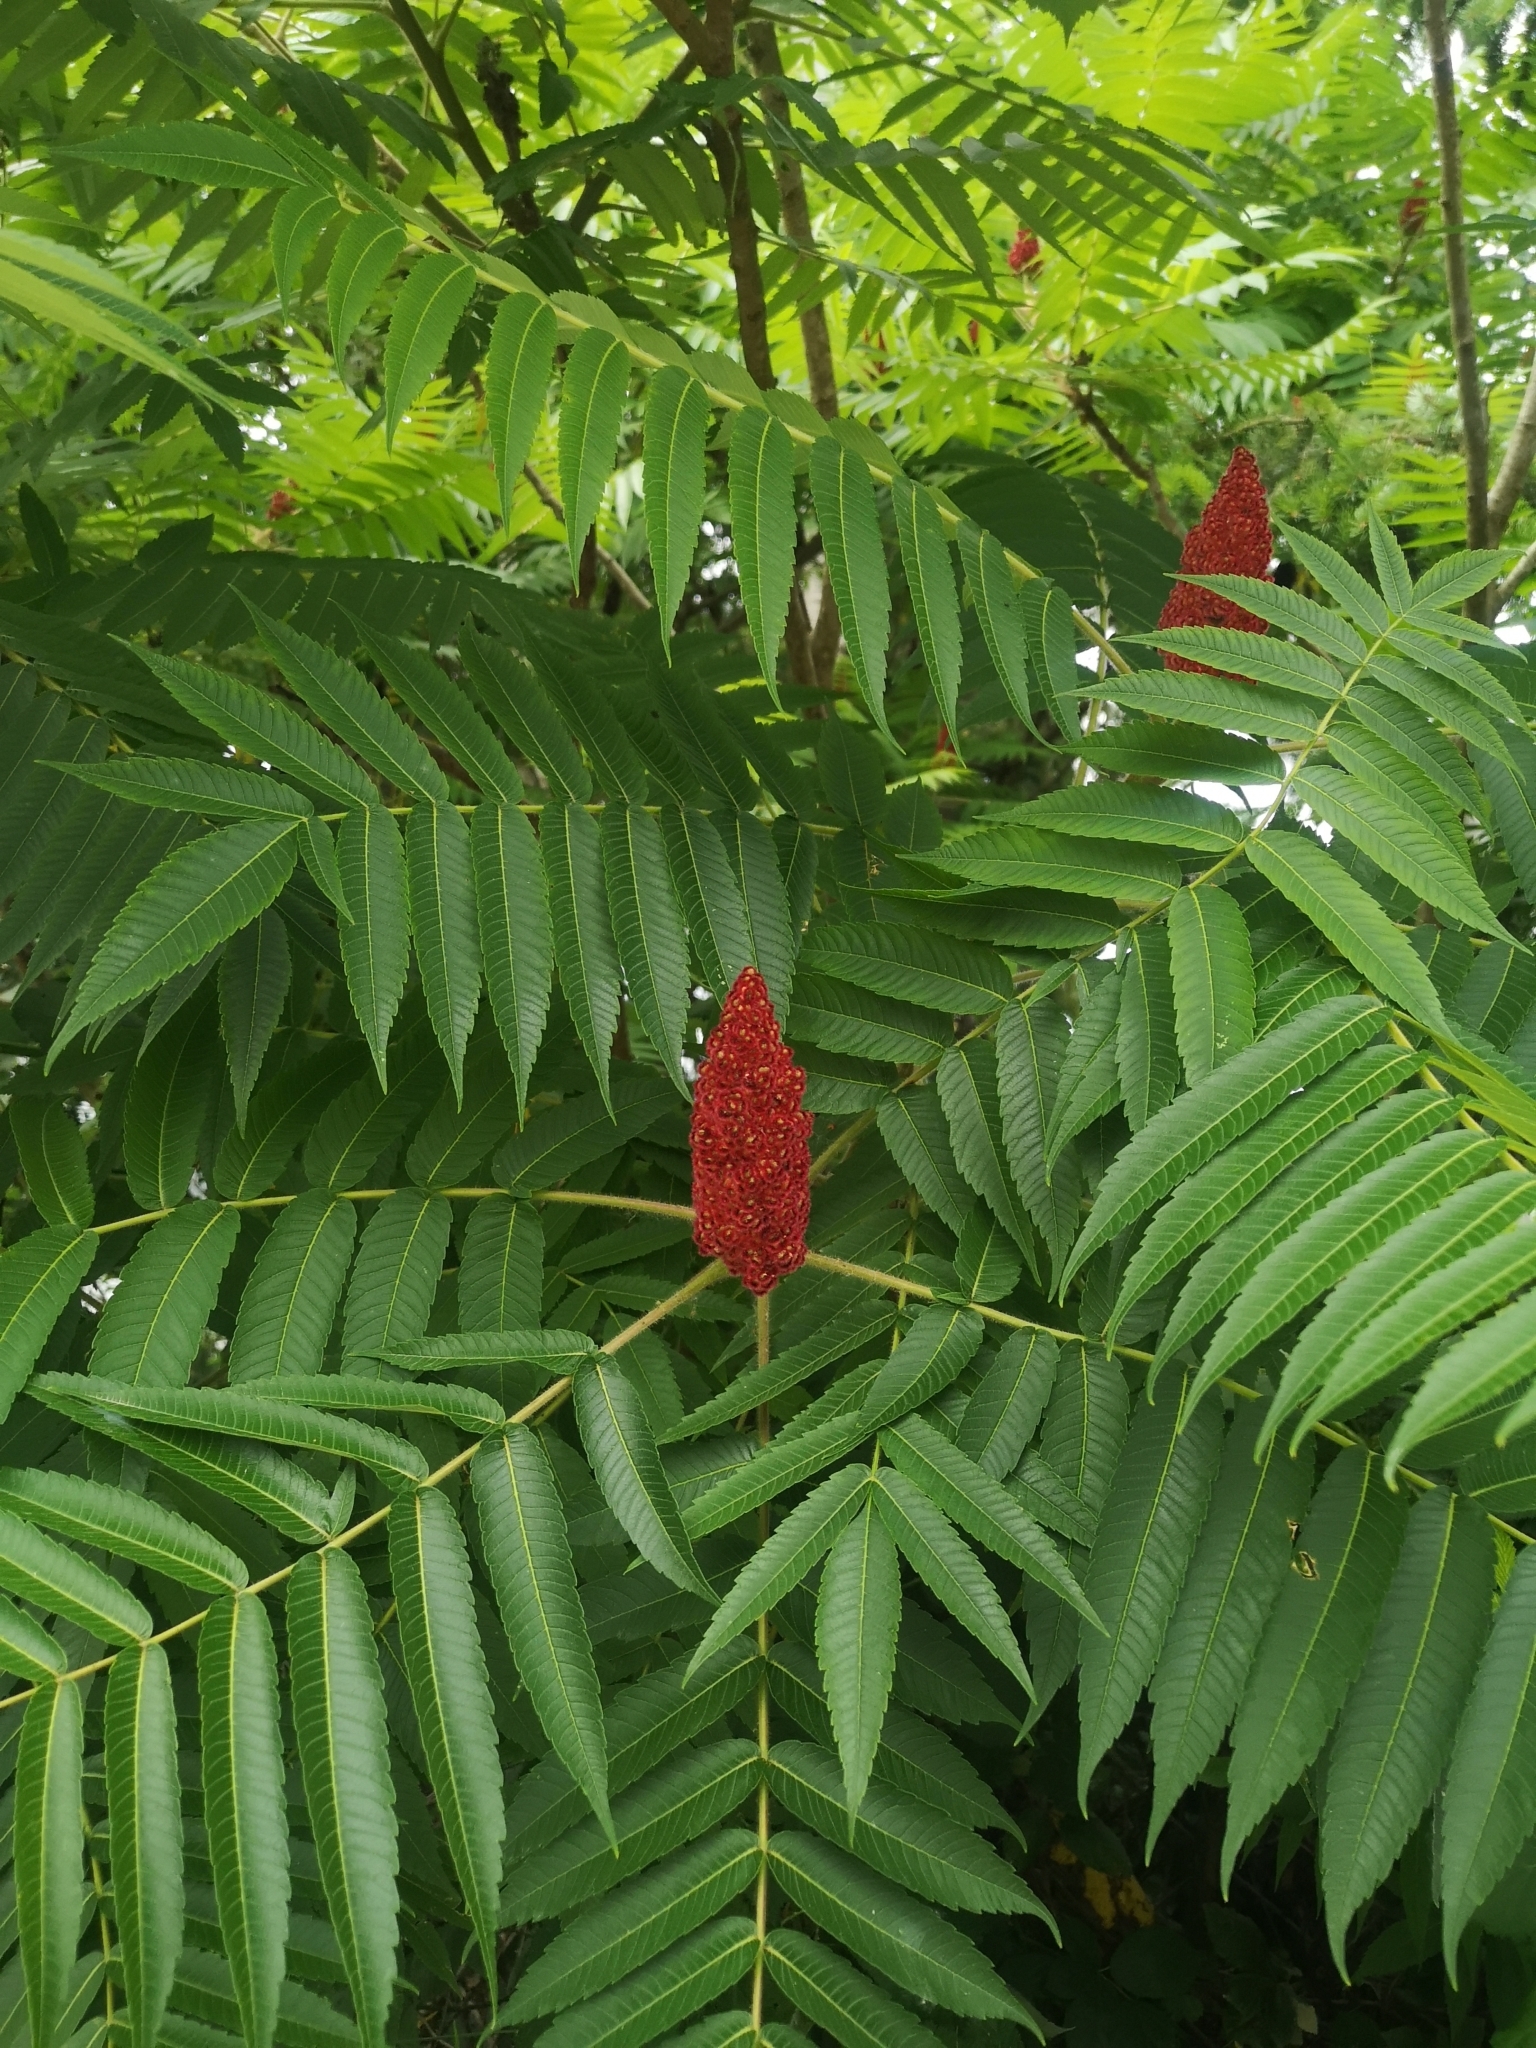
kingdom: Plantae
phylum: Tracheophyta
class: Magnoliopsida
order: Sapindales
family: Anacardiaceae
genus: Rhus
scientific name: Rhus typhina
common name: Staghorn sumac
